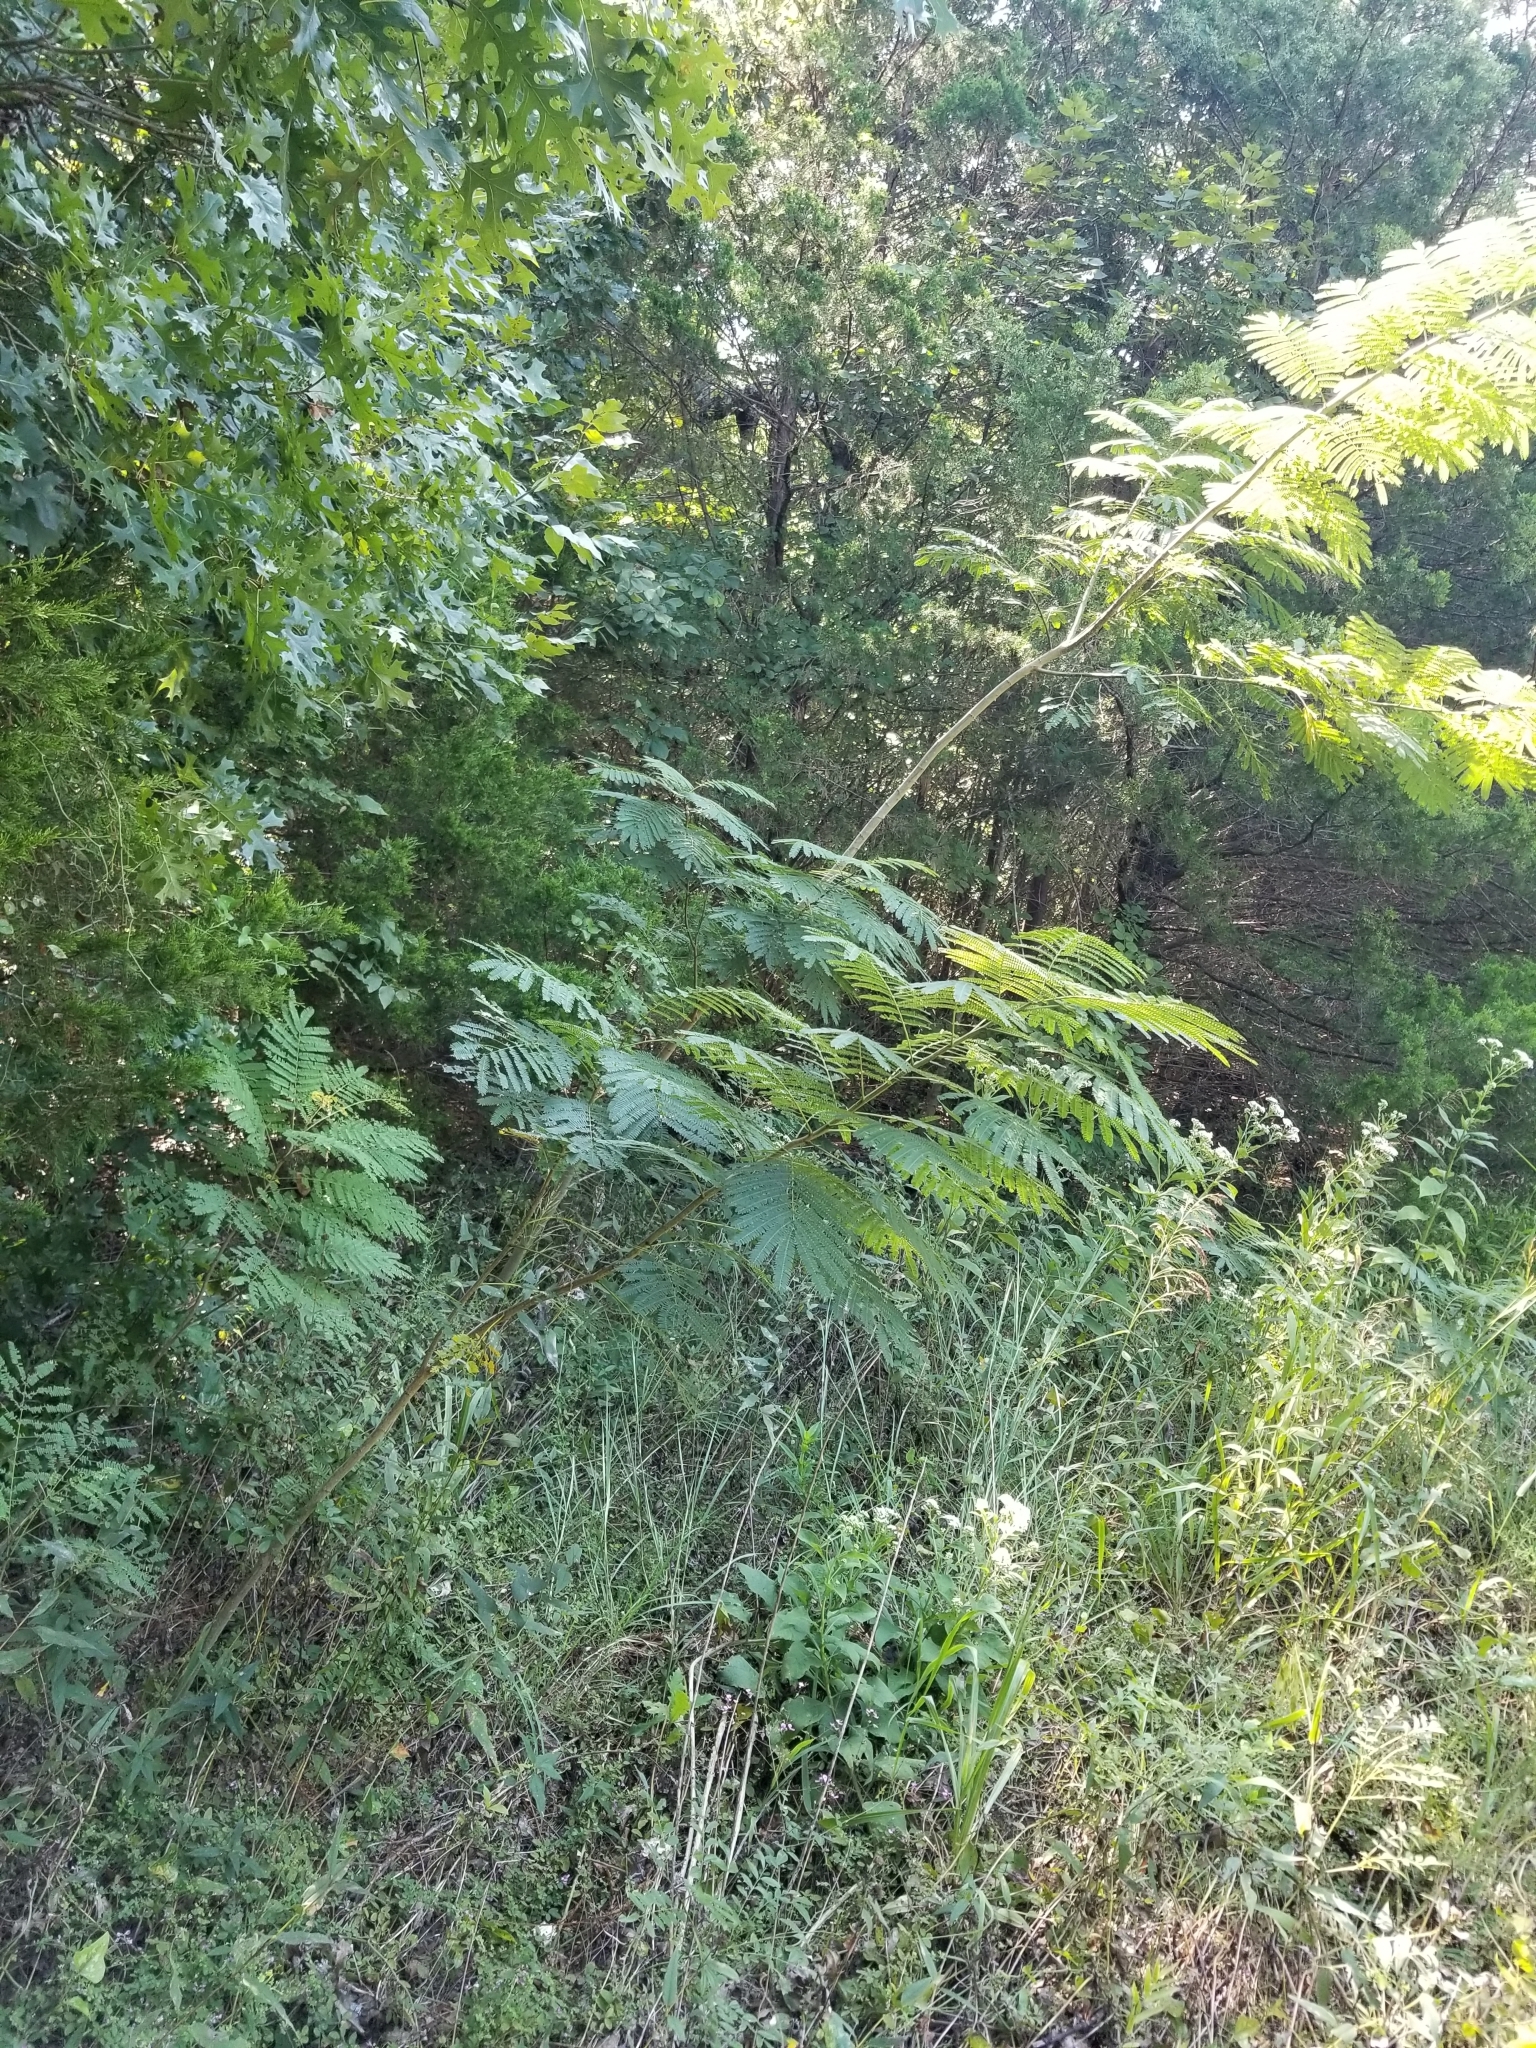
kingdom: Plantae
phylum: Tracheophyta
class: Magnoliopsida
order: Fabales
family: Fabaceae
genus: Albizia
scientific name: Albizia julibrissin
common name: Silktree
